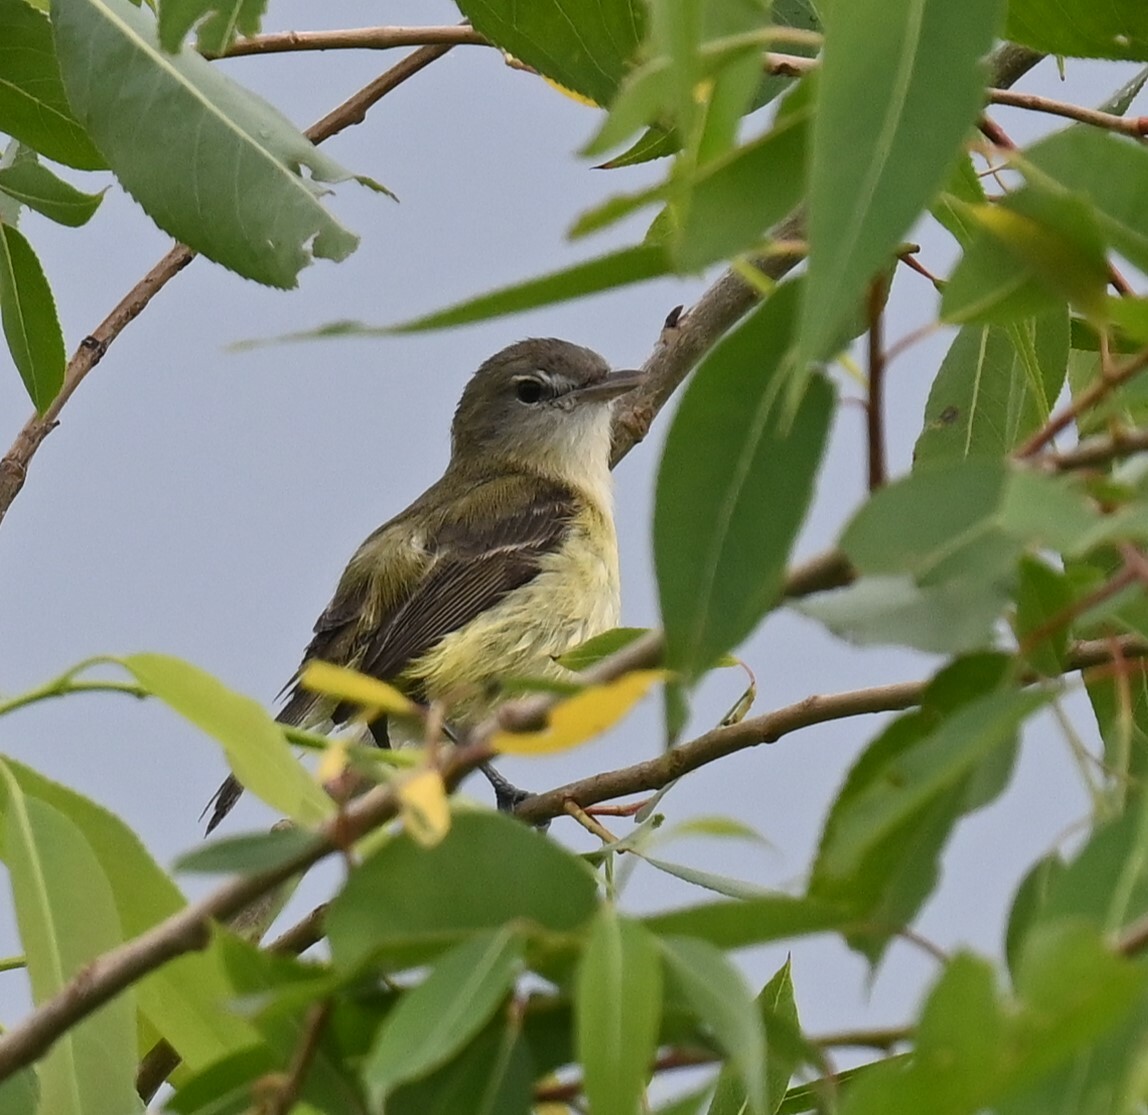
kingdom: Animalia
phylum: Chordata
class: Aves
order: Passeriformes
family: Vireonidae
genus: Vireo
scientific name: Vireo bellii
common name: Bell's vireo
